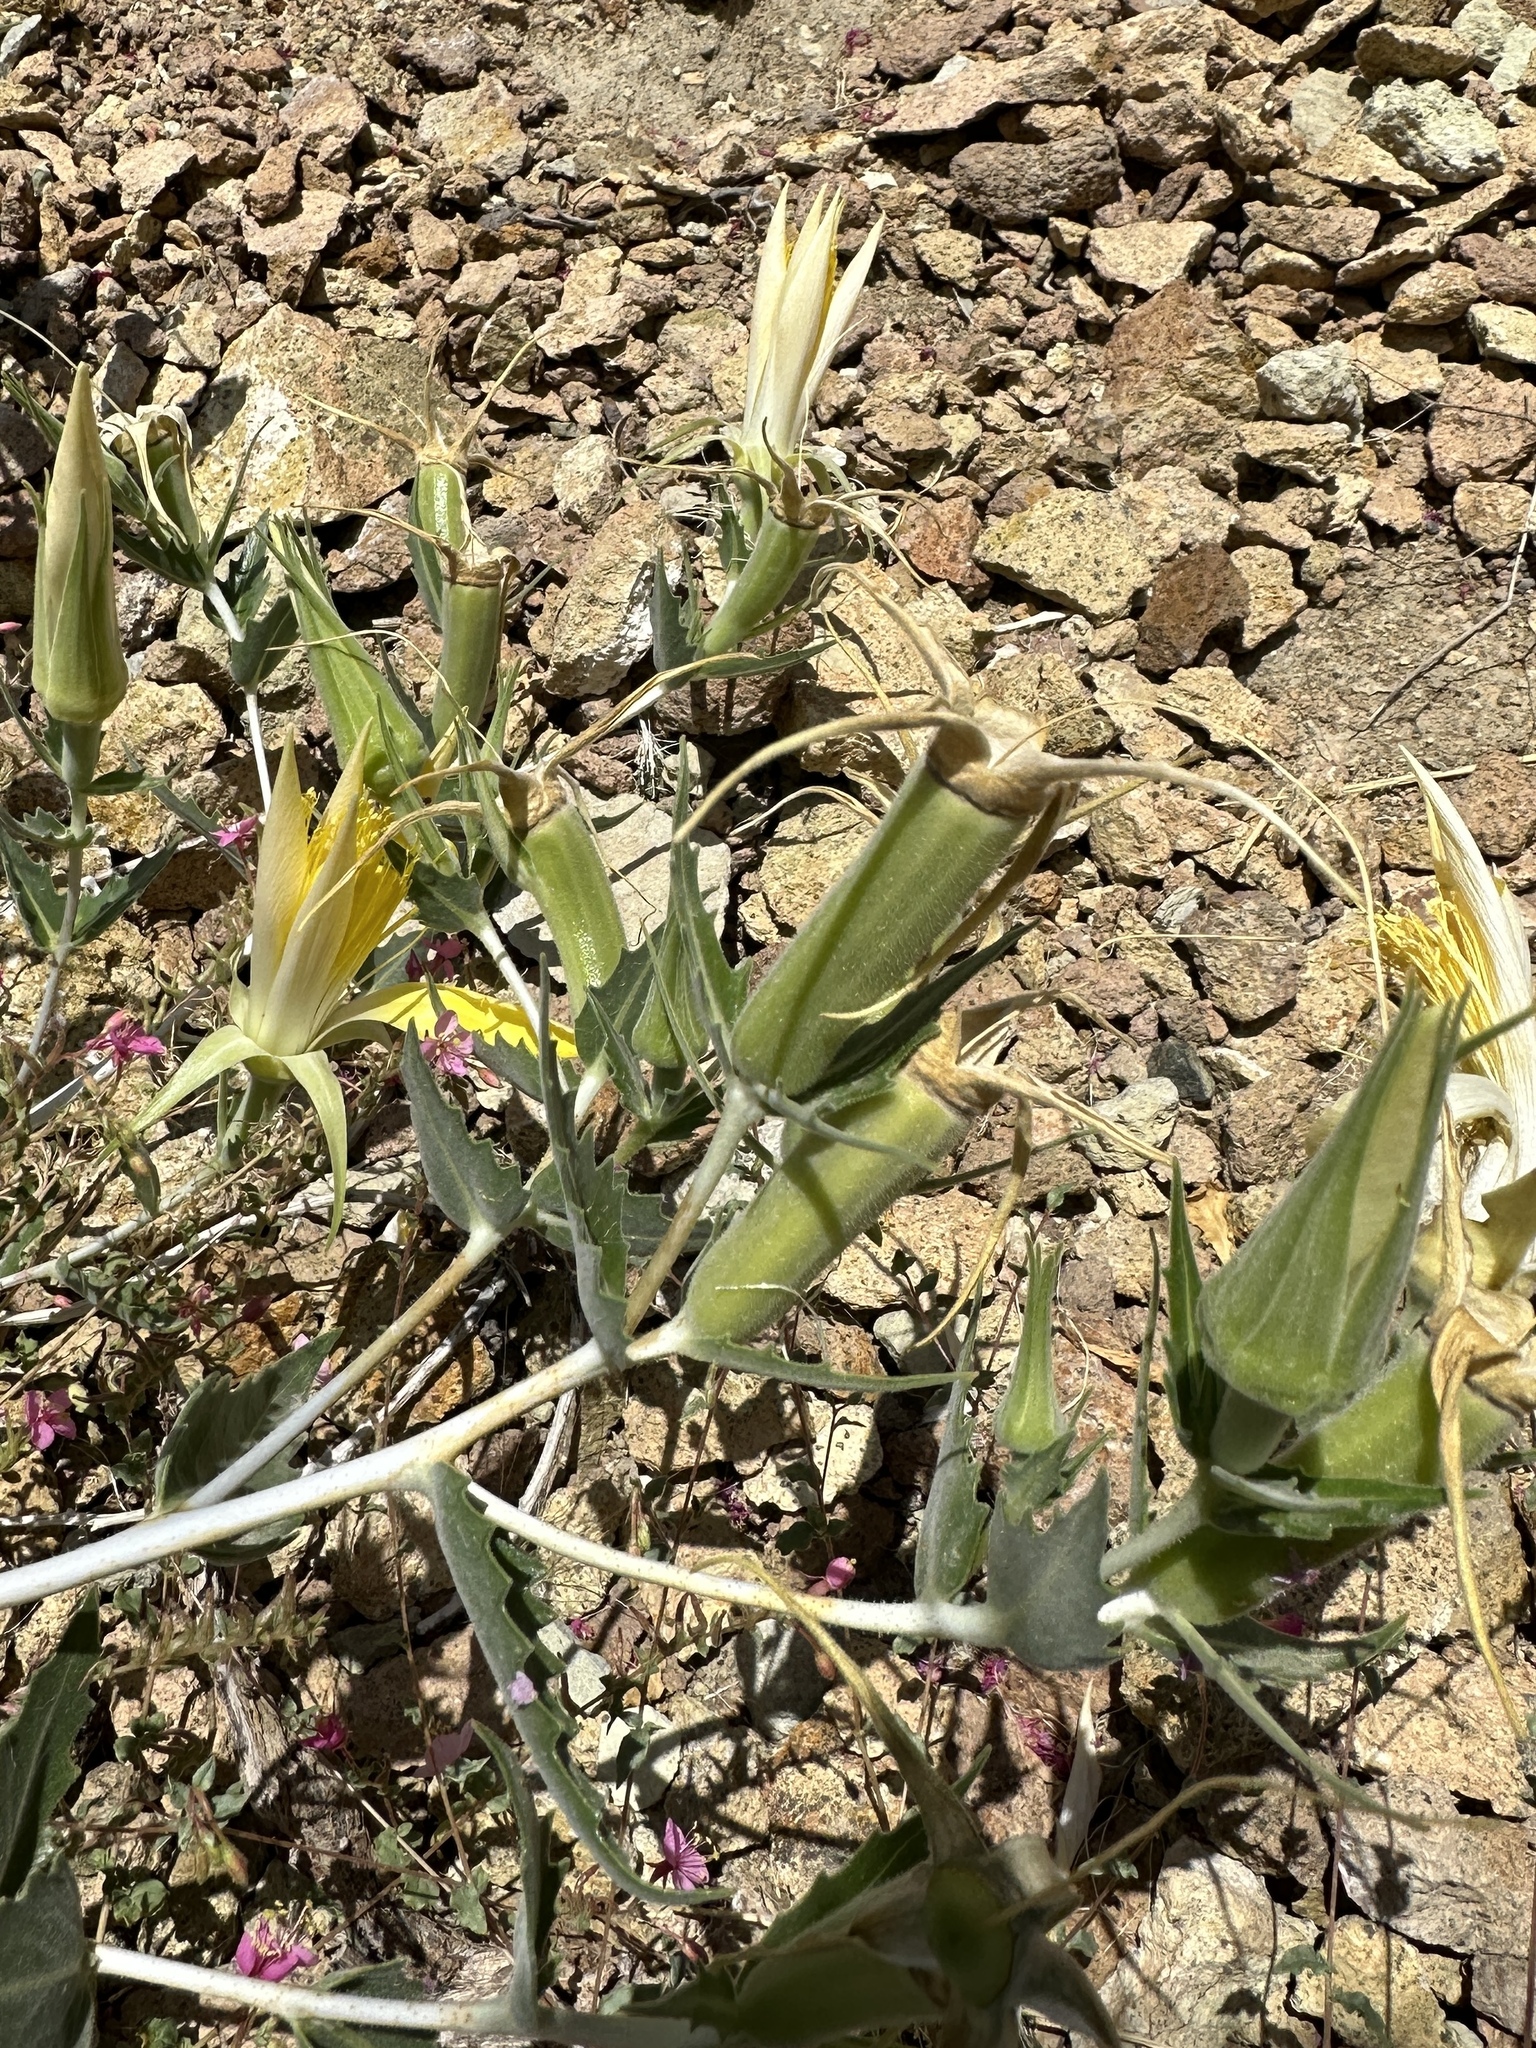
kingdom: Plantae
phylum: Tracheophyta
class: Magnoliopsida
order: Cornales
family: Loasaceae
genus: Mentzelia
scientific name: Mentzelia laevicaulis
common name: Smooth-stem blazingstar
